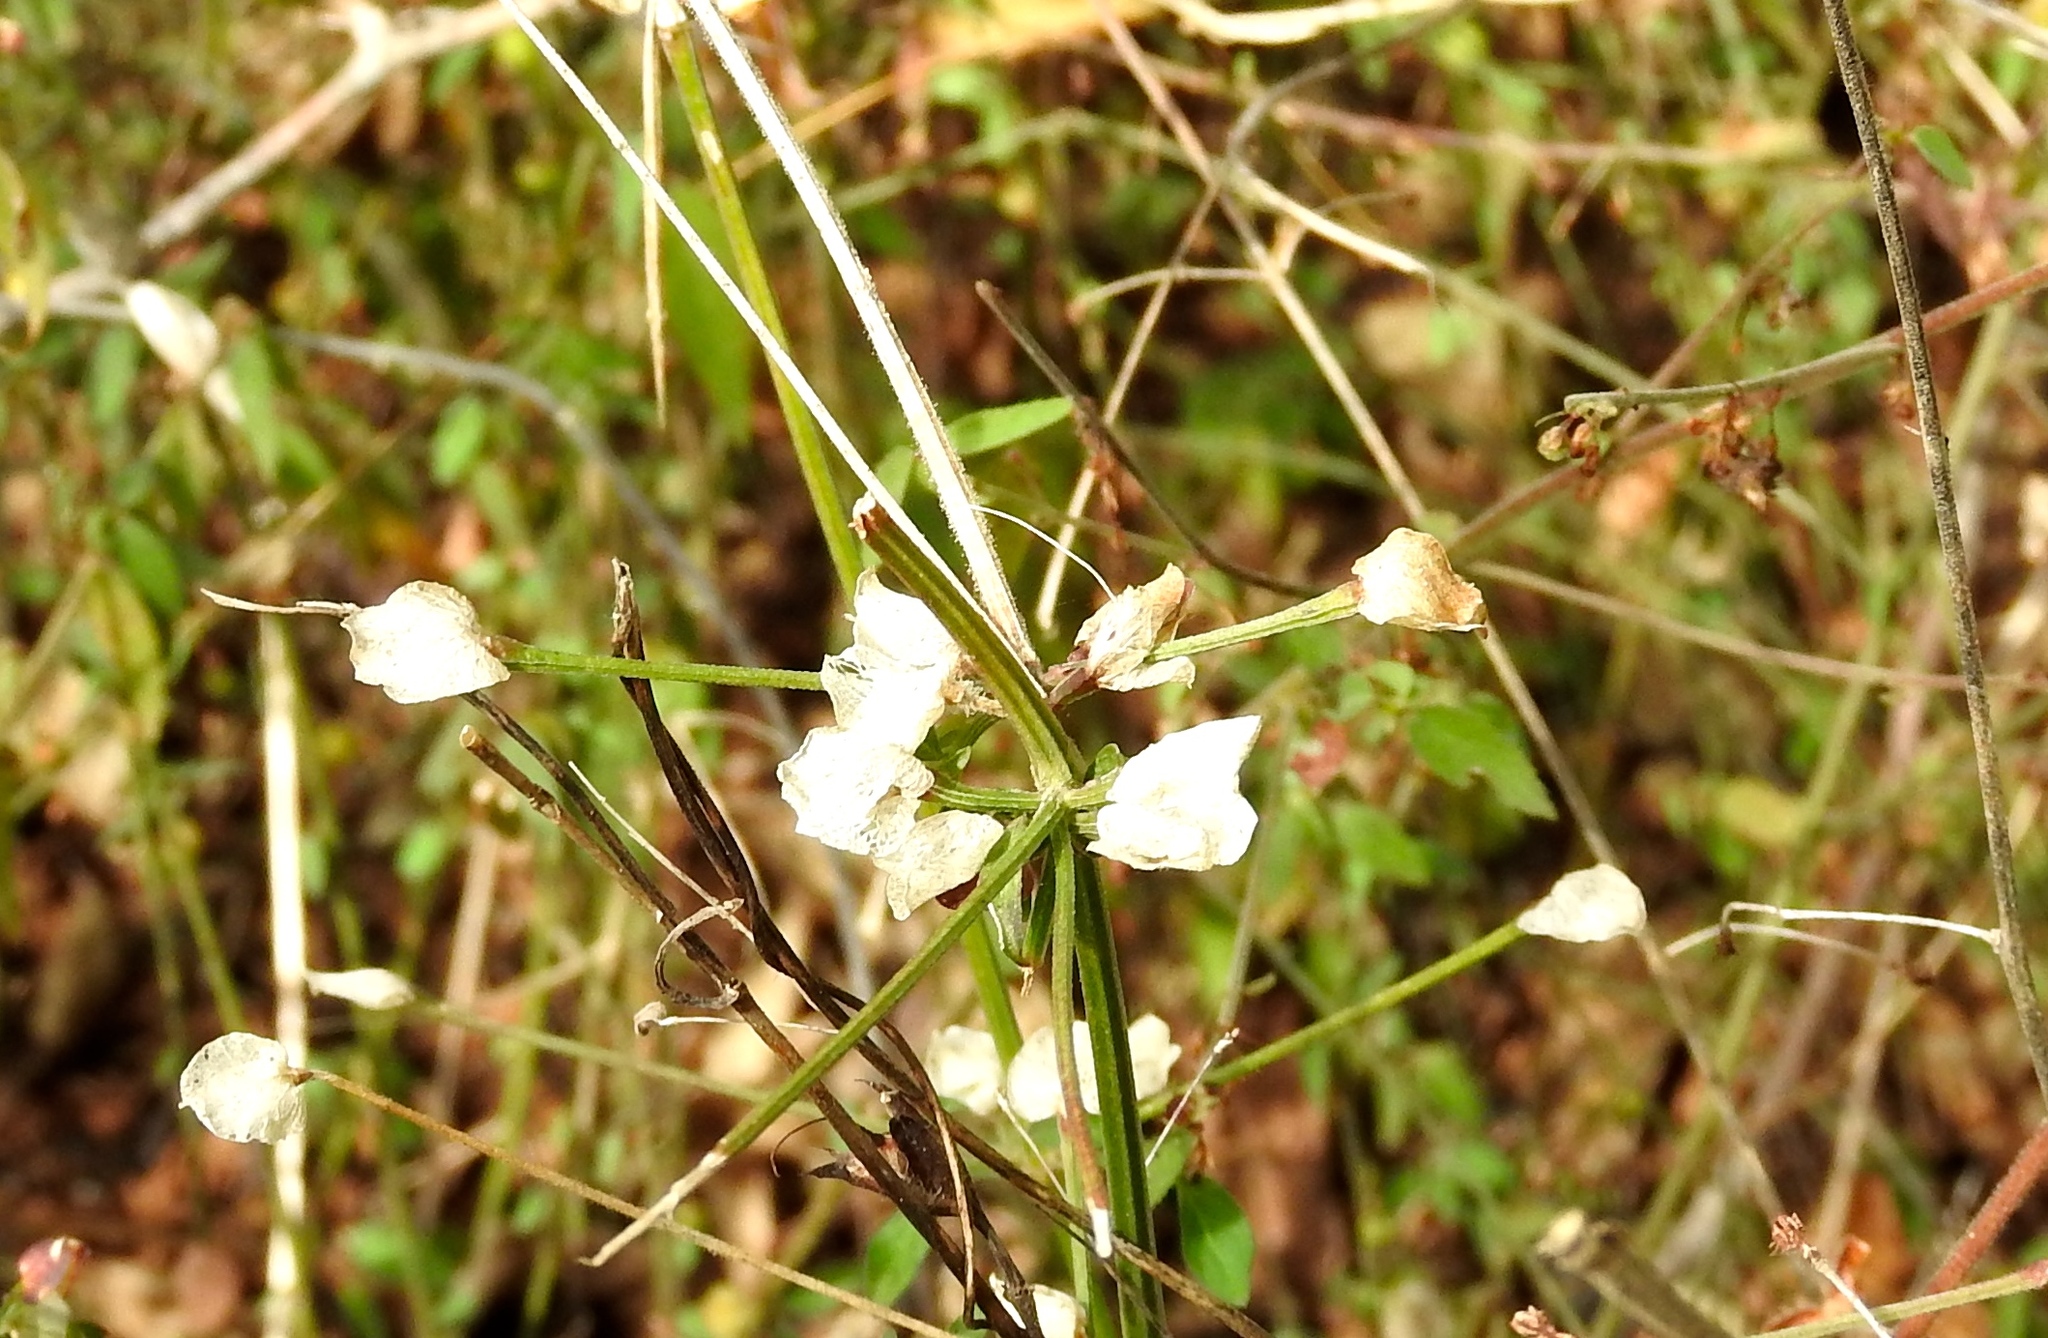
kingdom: Plantae
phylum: Tracheophyta
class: Magnoliopsida
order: Lamiales
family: Acanthaceae
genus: Dicliptera
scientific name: Dicliptera resupinata
